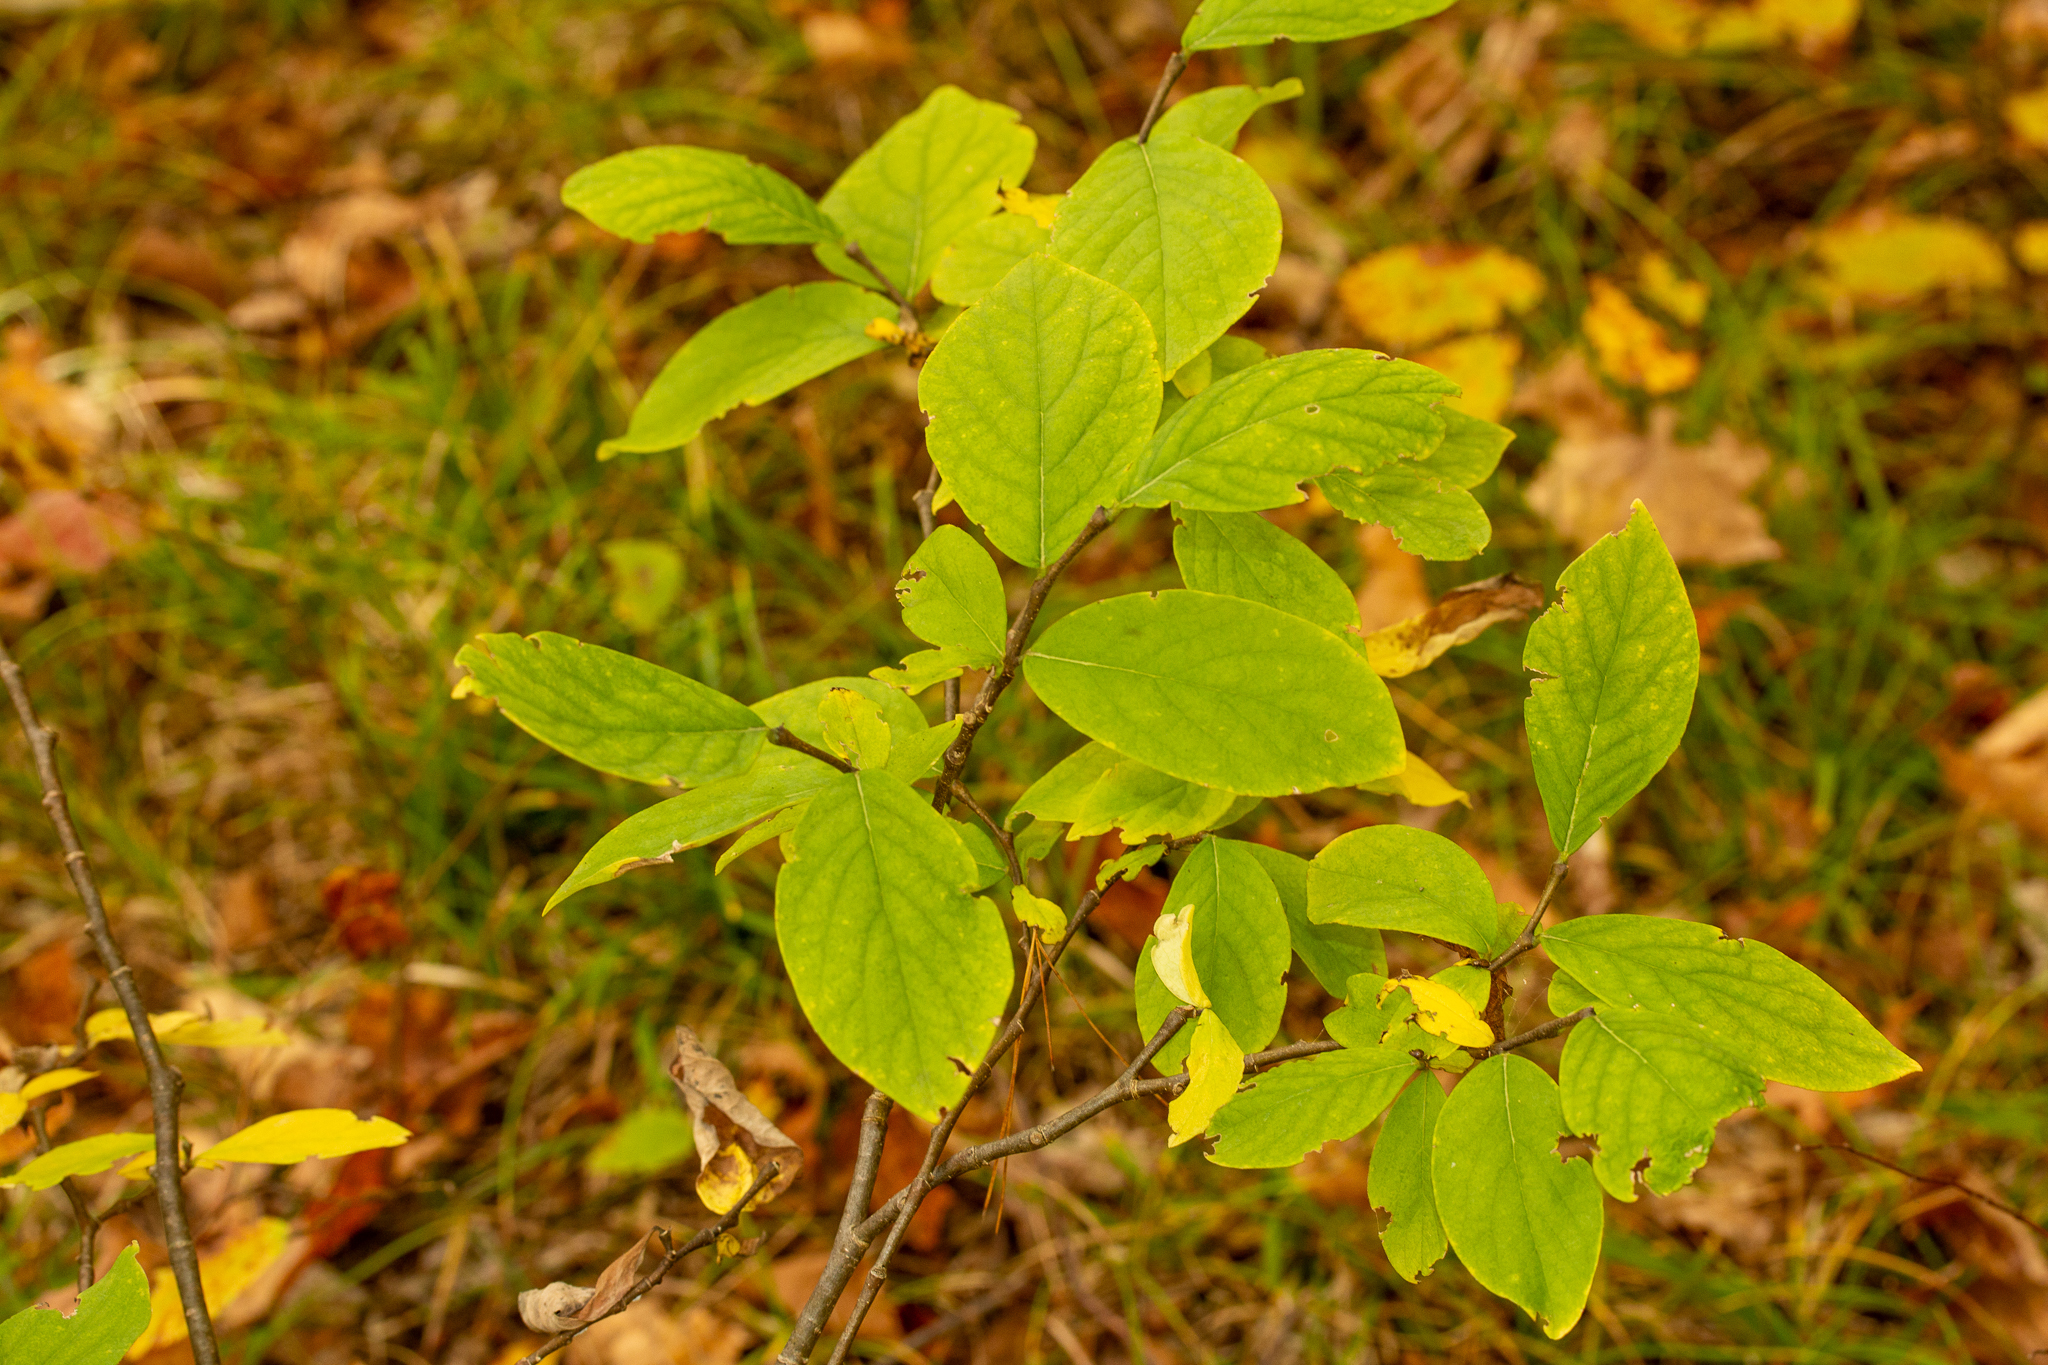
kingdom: Plantae
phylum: Tracheophyta
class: Magnoliopsida
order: Malvales
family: Thymelaeaceae
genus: Dirca
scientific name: Dirca palustris
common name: Leatherwood
